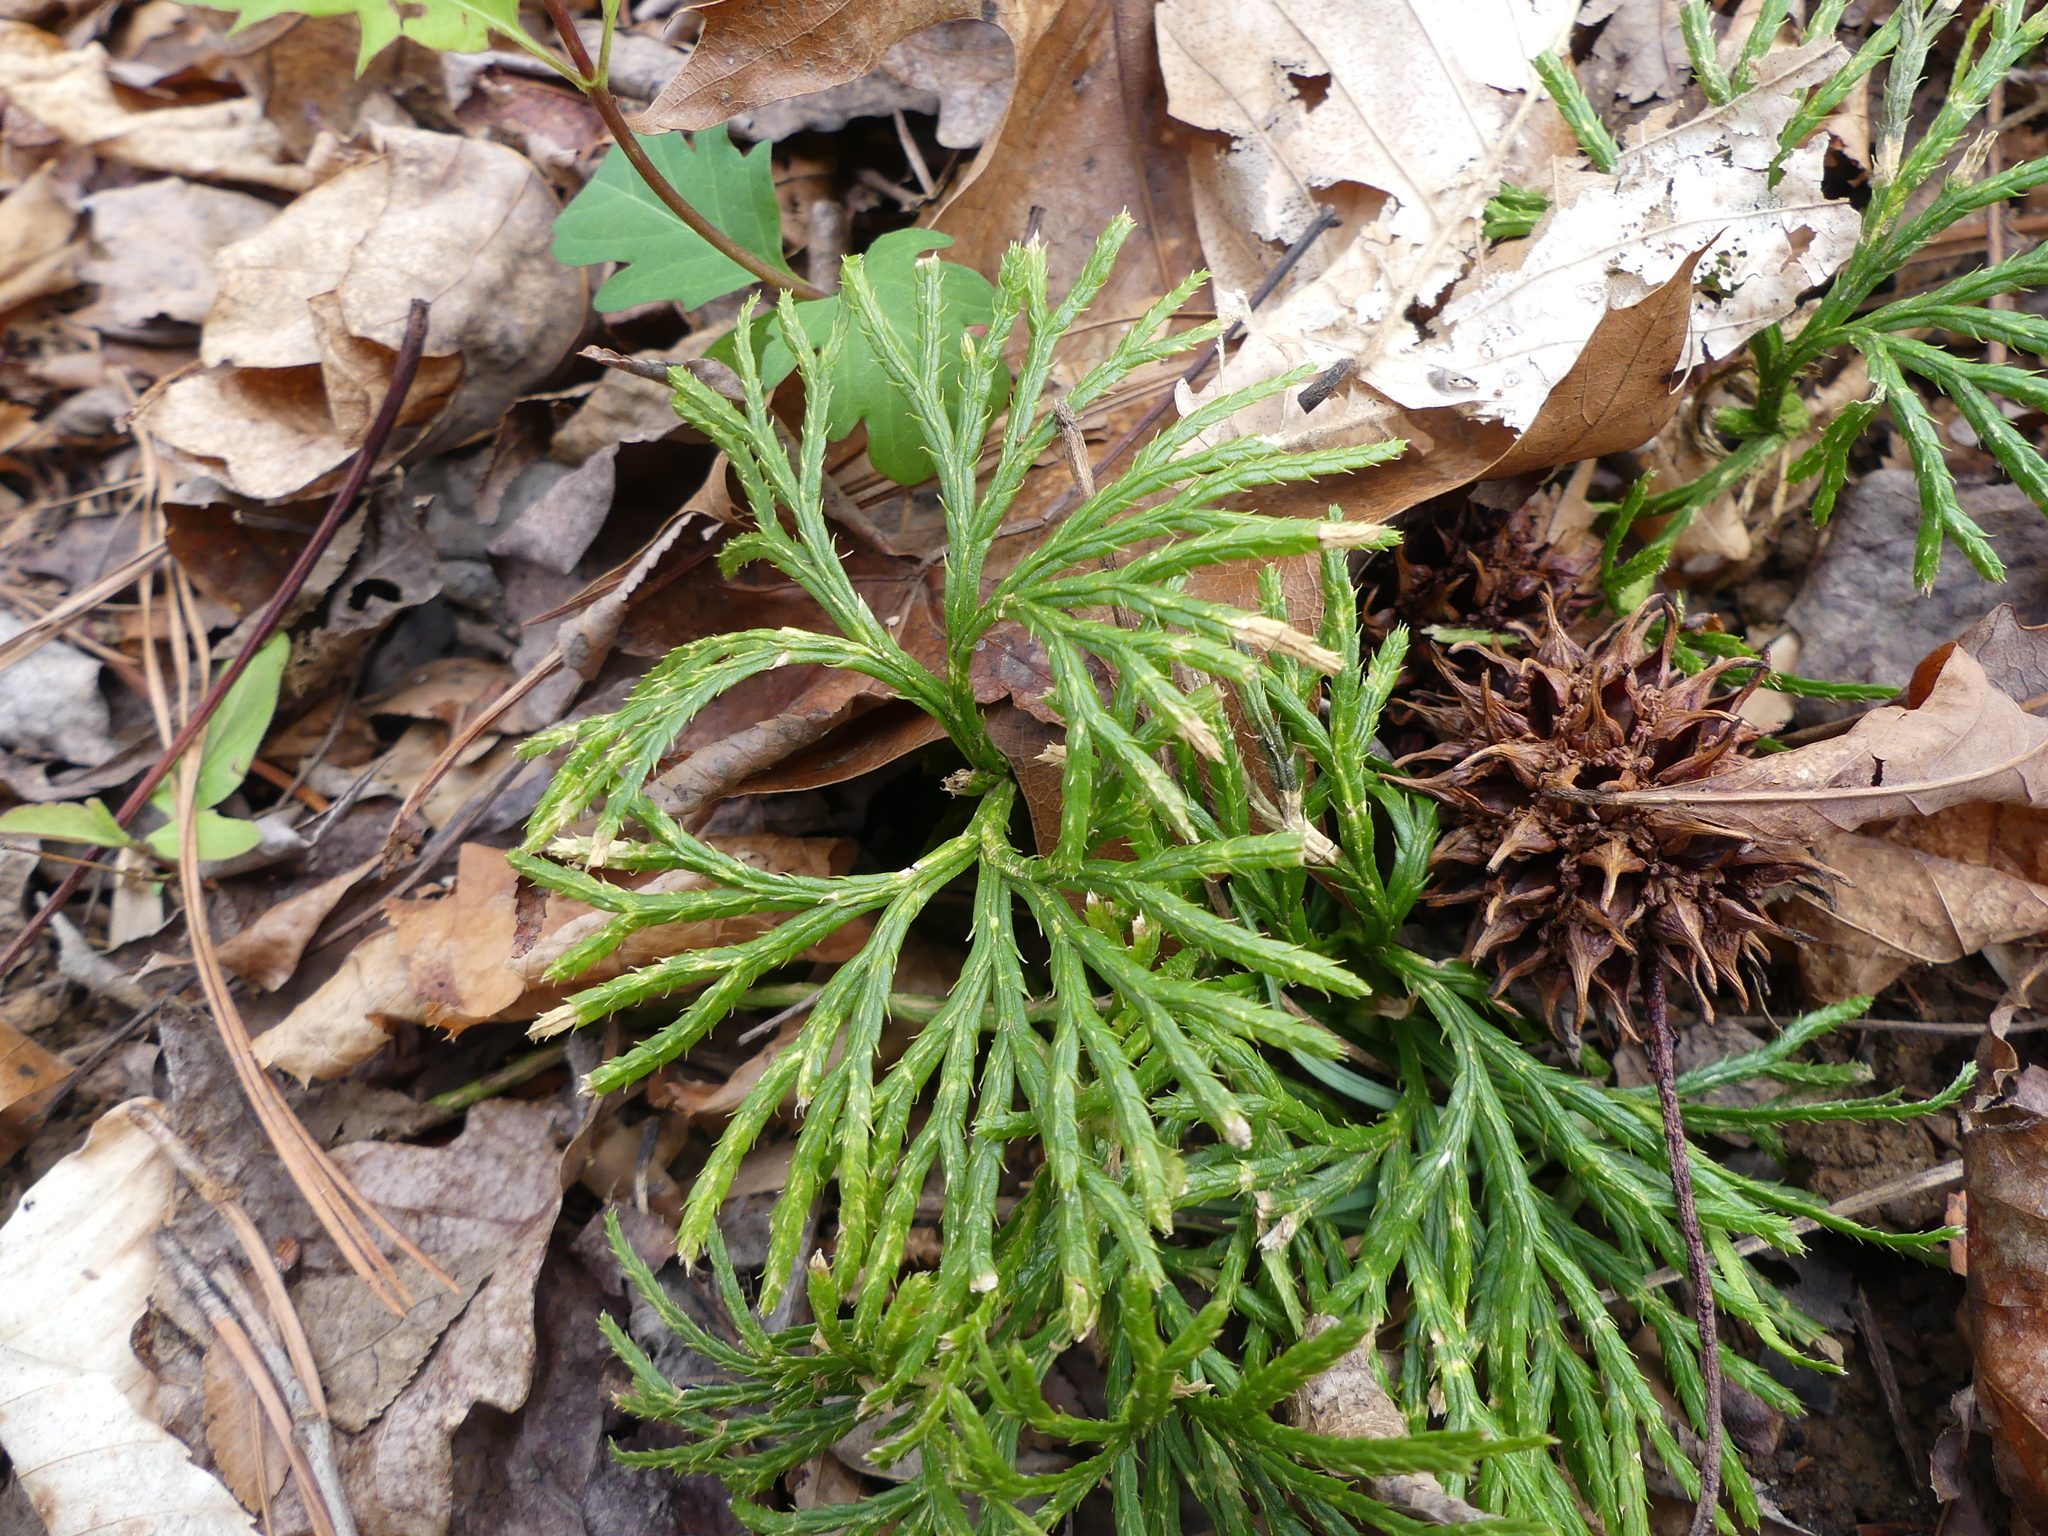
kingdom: Plantae
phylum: Tracheophyta
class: Lycopodiopsida
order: Lycopodiales
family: Lycopodiaceae
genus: Diphasiastrum
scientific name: Diphasiastrum digitatum
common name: Southern running-pine
